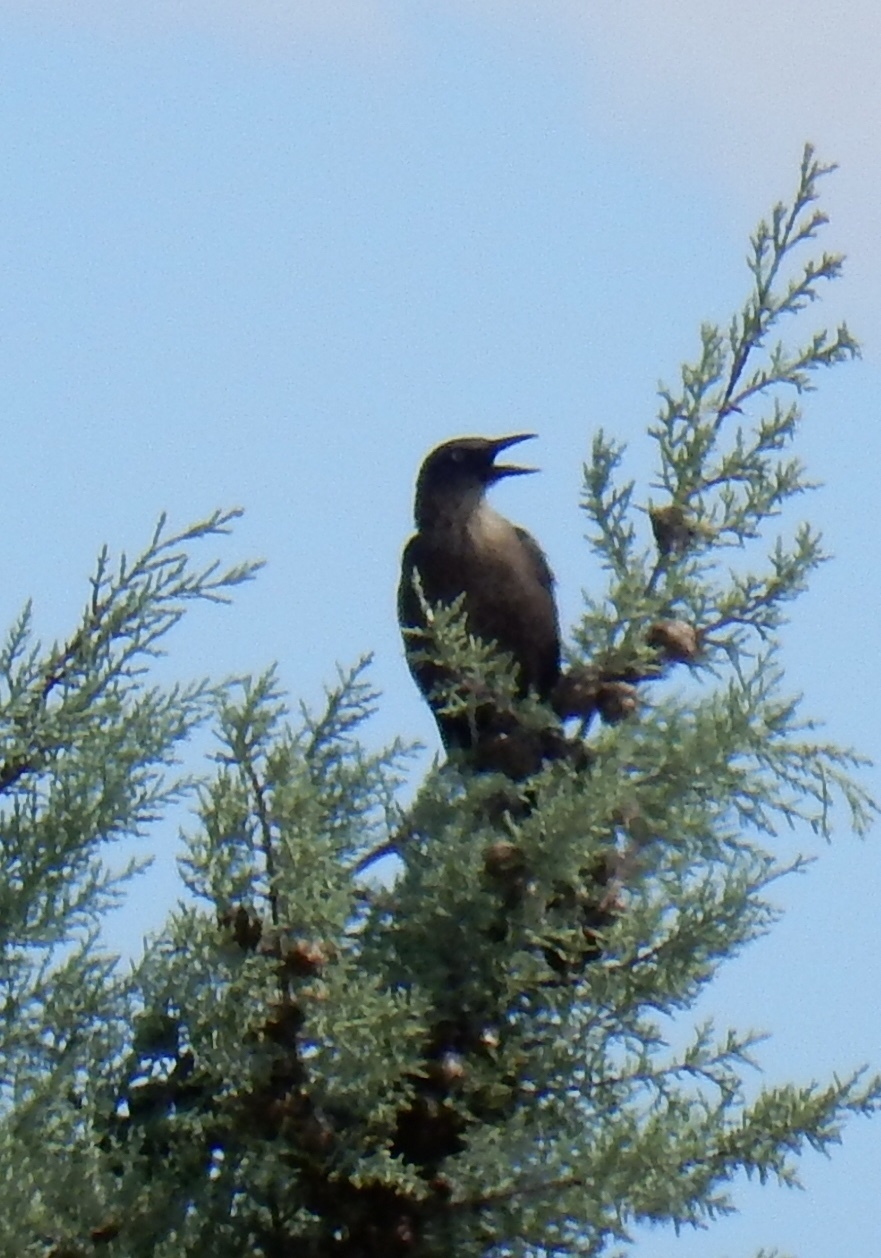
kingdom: Animalia
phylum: Chordata
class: Aves
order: Passeriformes
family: Icteridae
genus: Quiscalus
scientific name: Quiscalus mexicanus
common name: Great-tailed grackle
